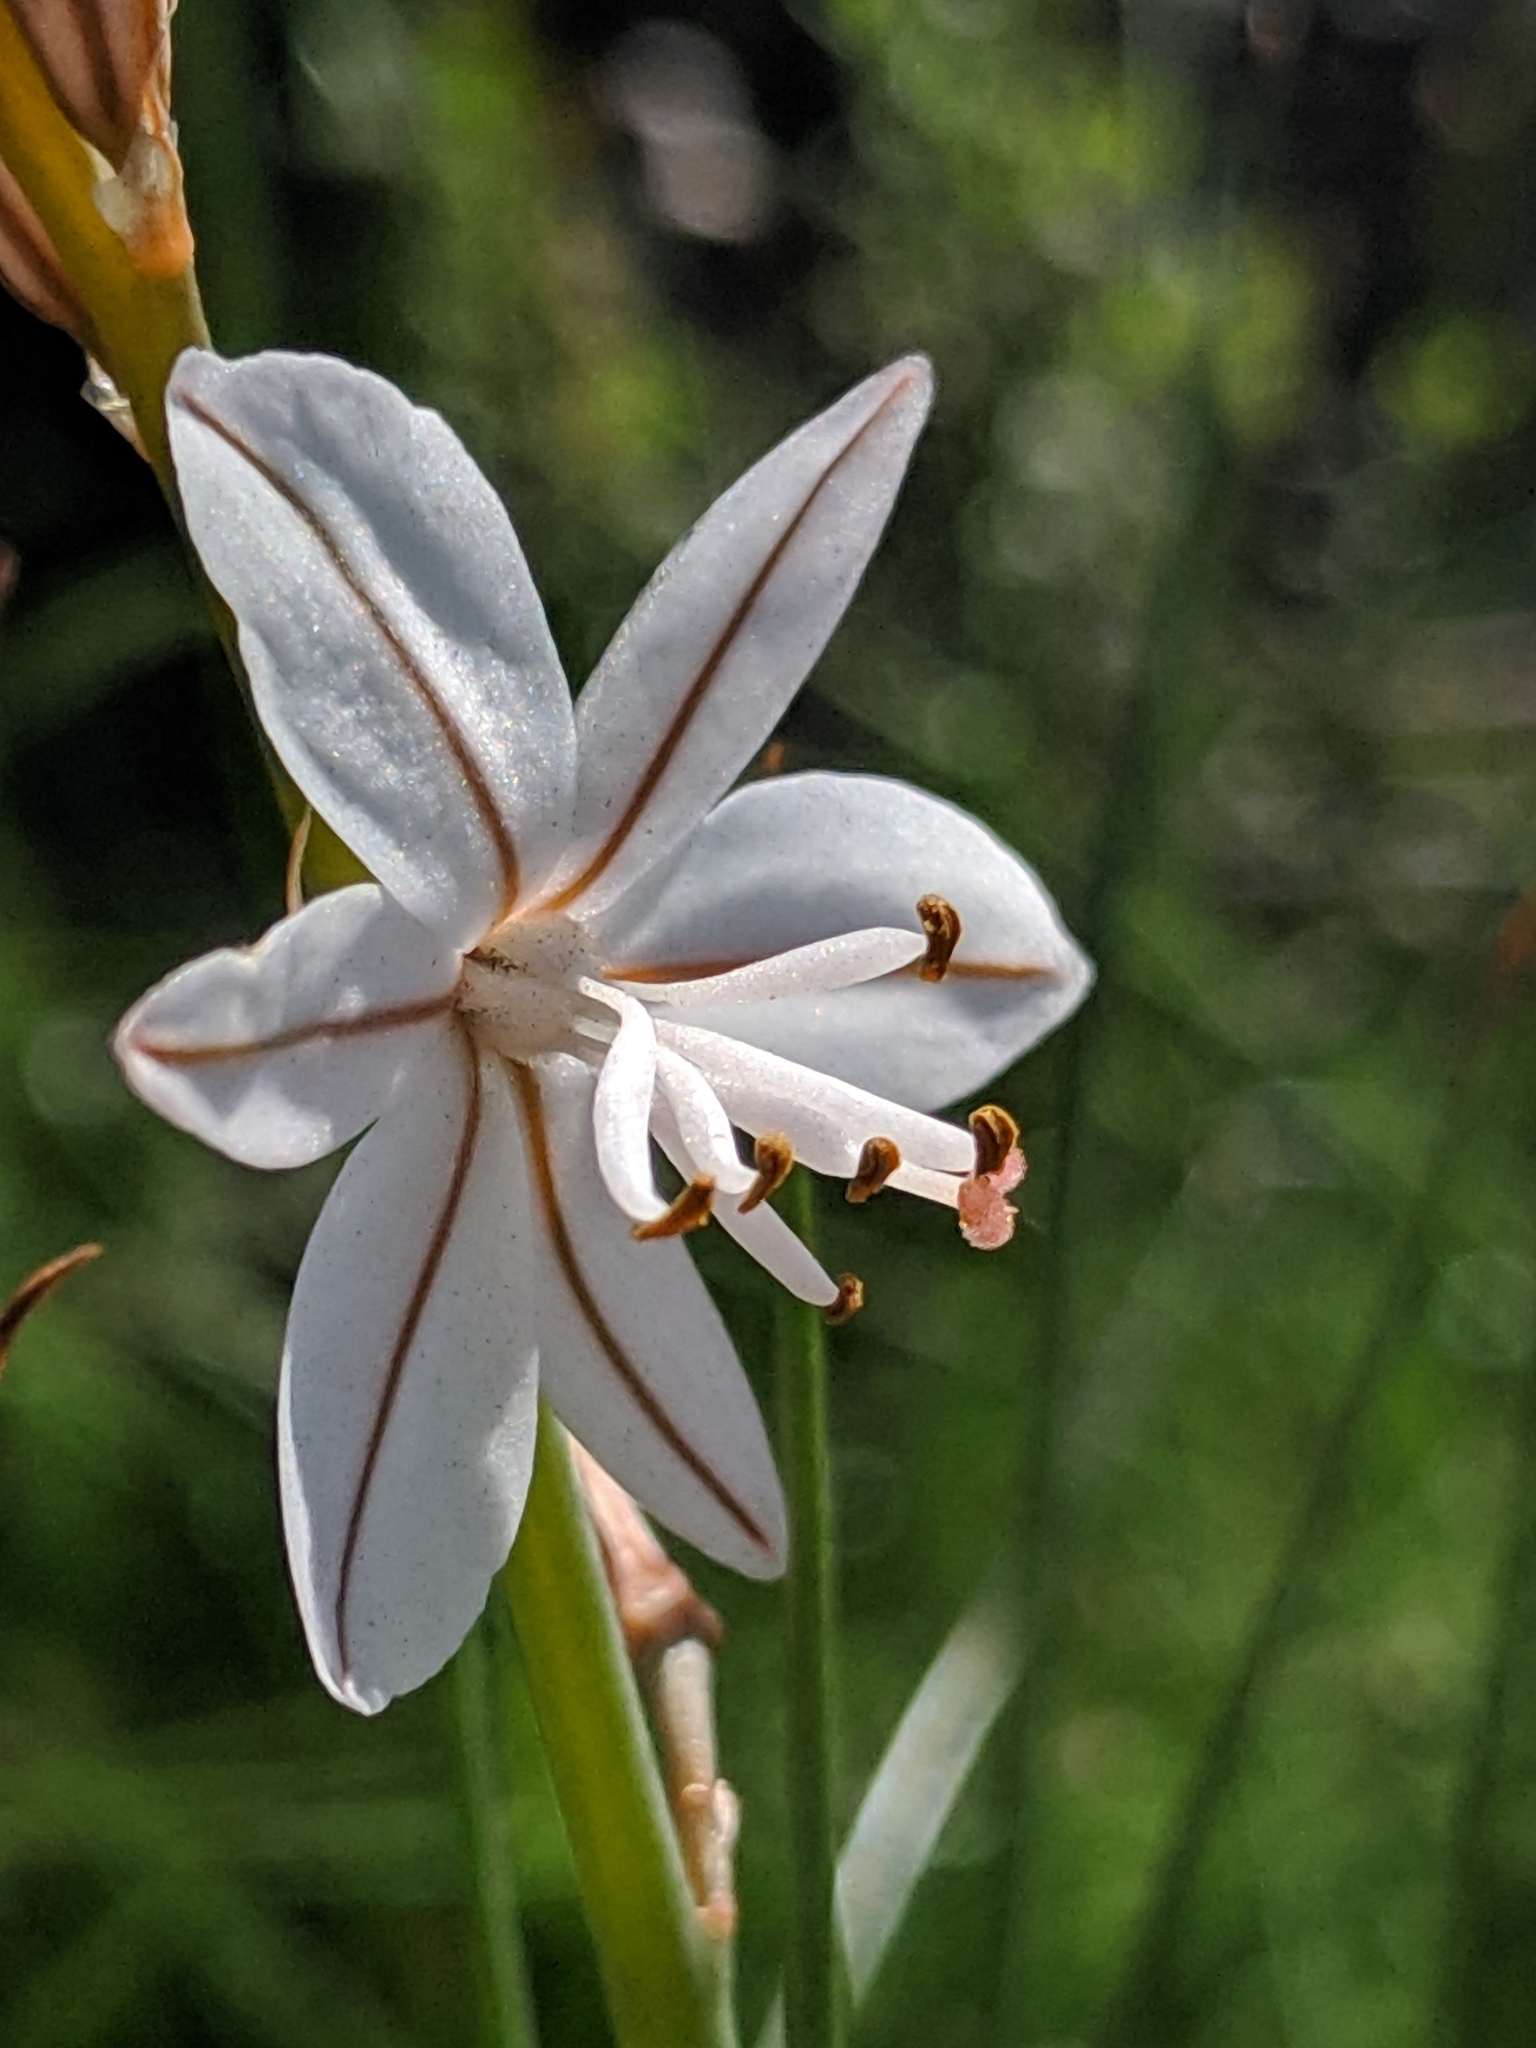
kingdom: Plantae
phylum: Tracheophyta
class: Liliopsida
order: Asparagales
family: Asphodelaceae
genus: Asphodelus
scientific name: Asphodelus fistulosus
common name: Onionweed
